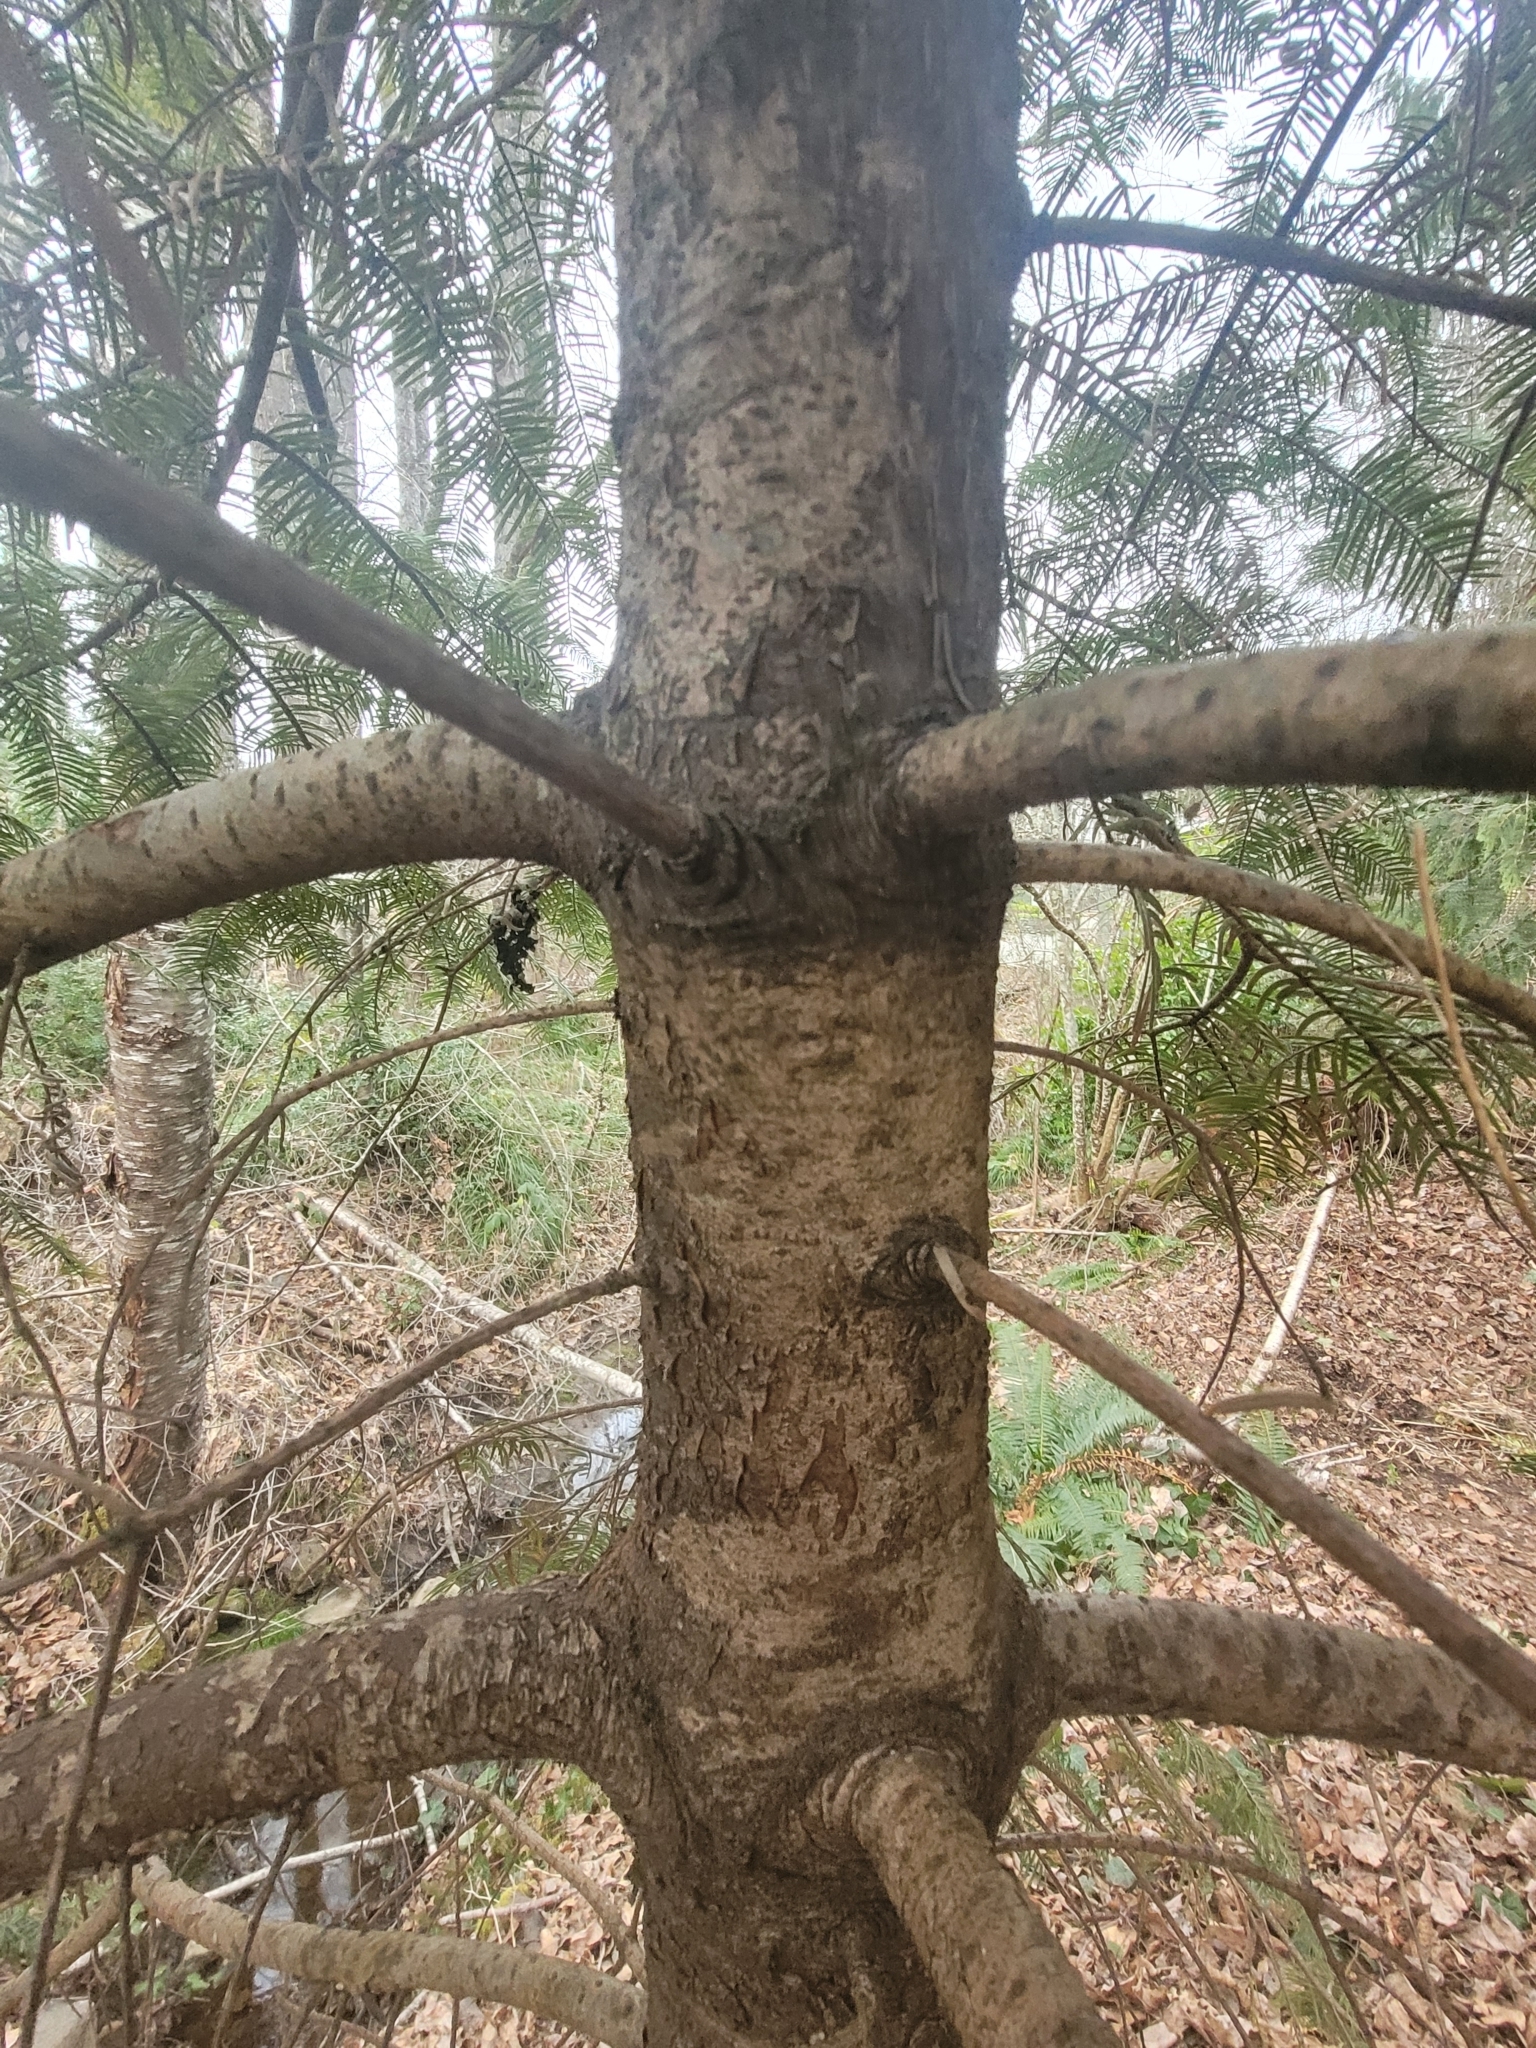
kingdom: Plantae
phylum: Tracheophyta
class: Pinopsida
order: Pinales
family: Pinaceae
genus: Abies
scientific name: Abies grandis
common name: Giant fir
